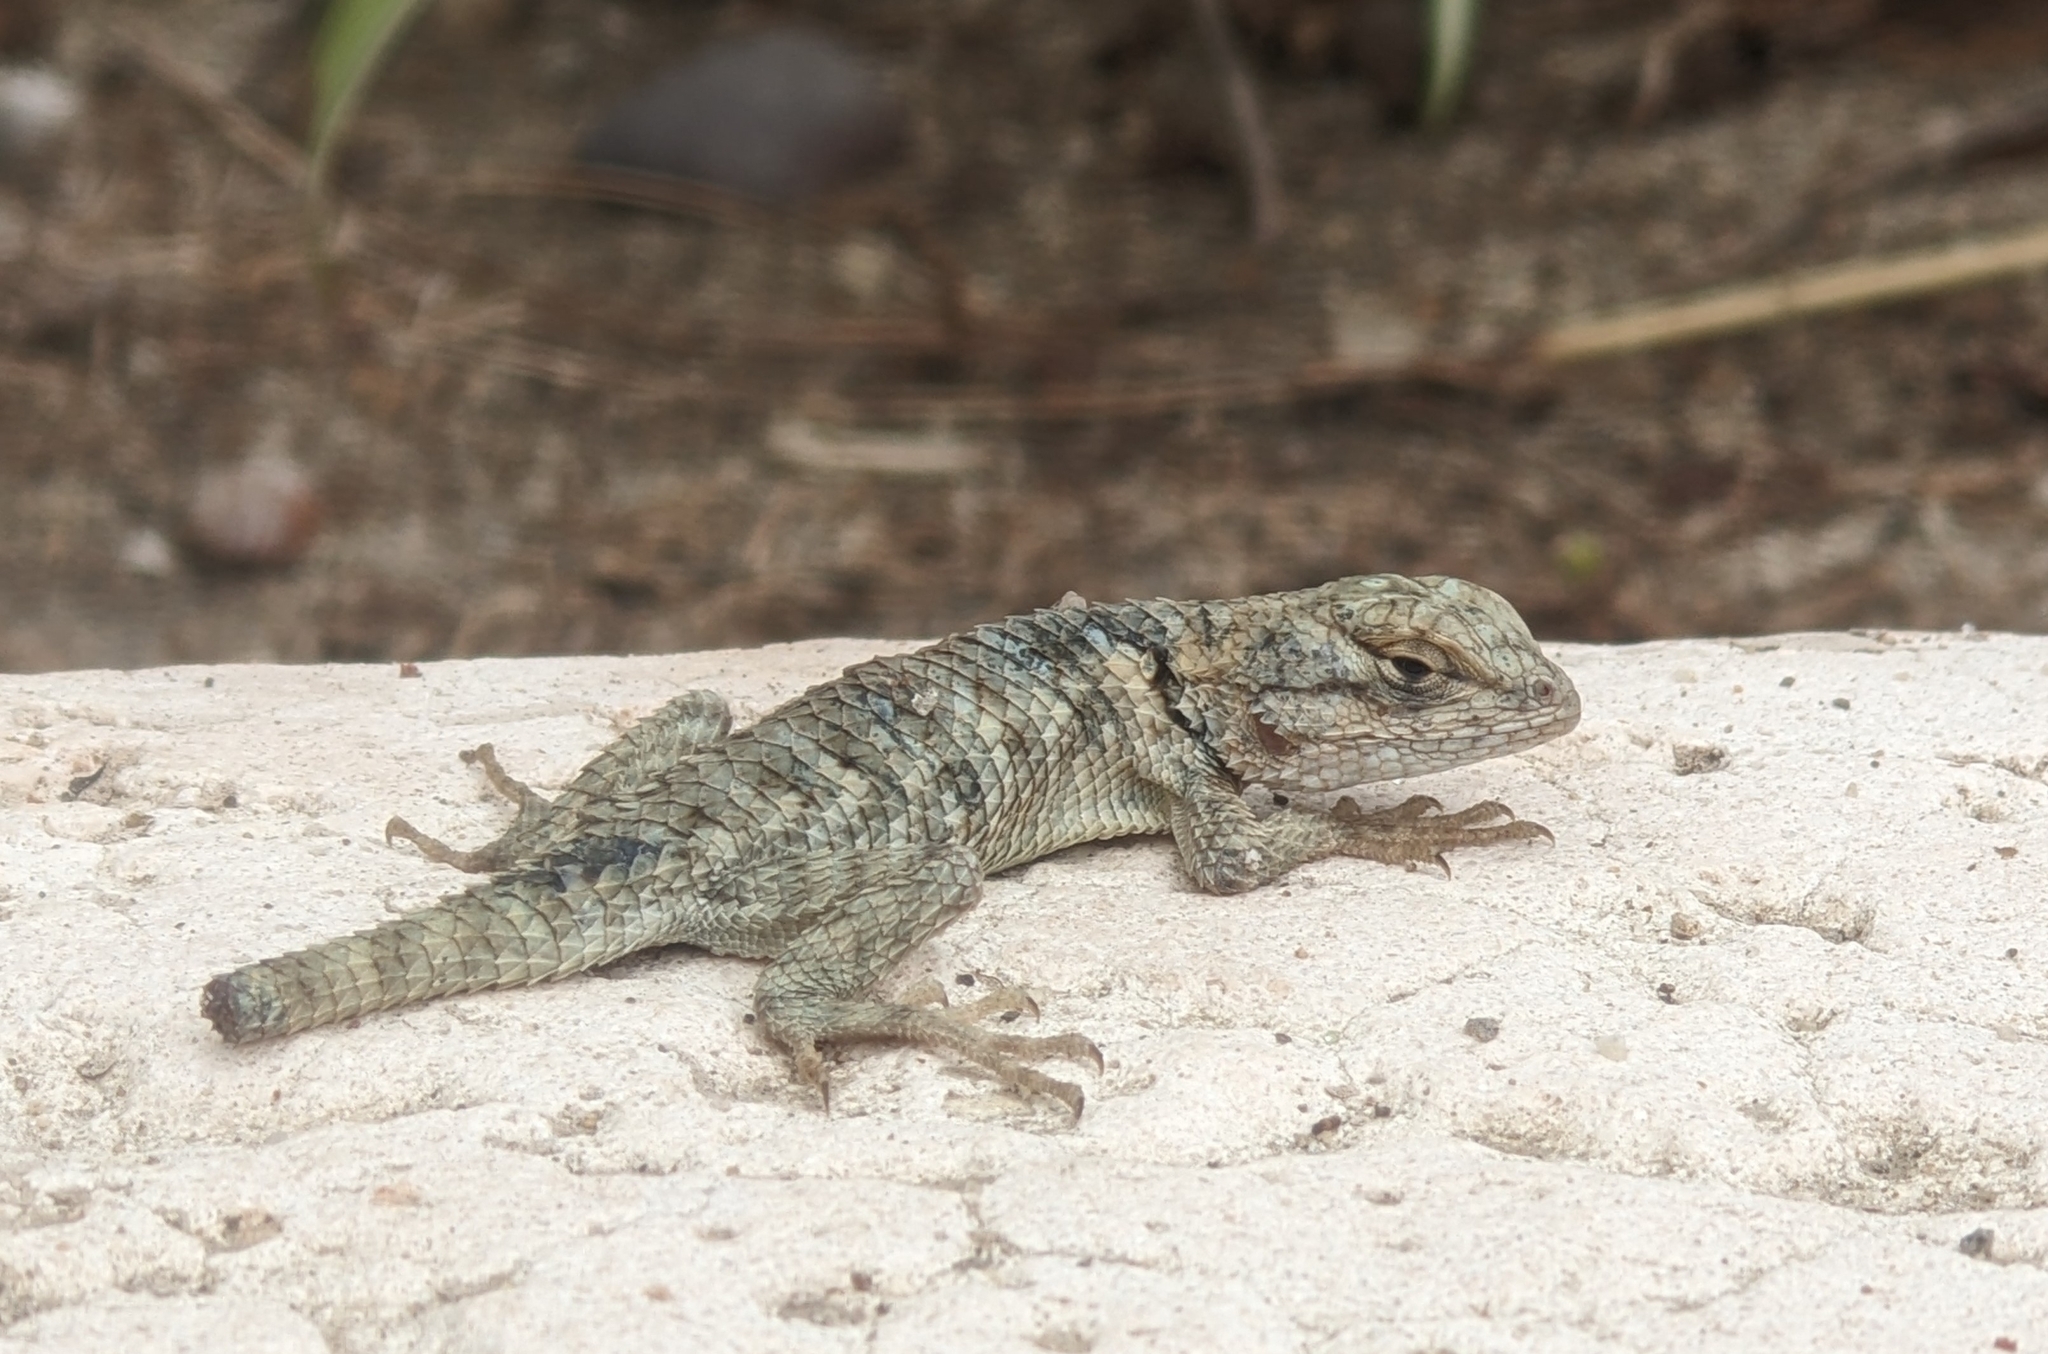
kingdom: Animalia
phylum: Chordata
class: Squamata
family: Phrynosomatidae
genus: Sceloporus
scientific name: Sceloporus magister
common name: Desert spiny lizard
